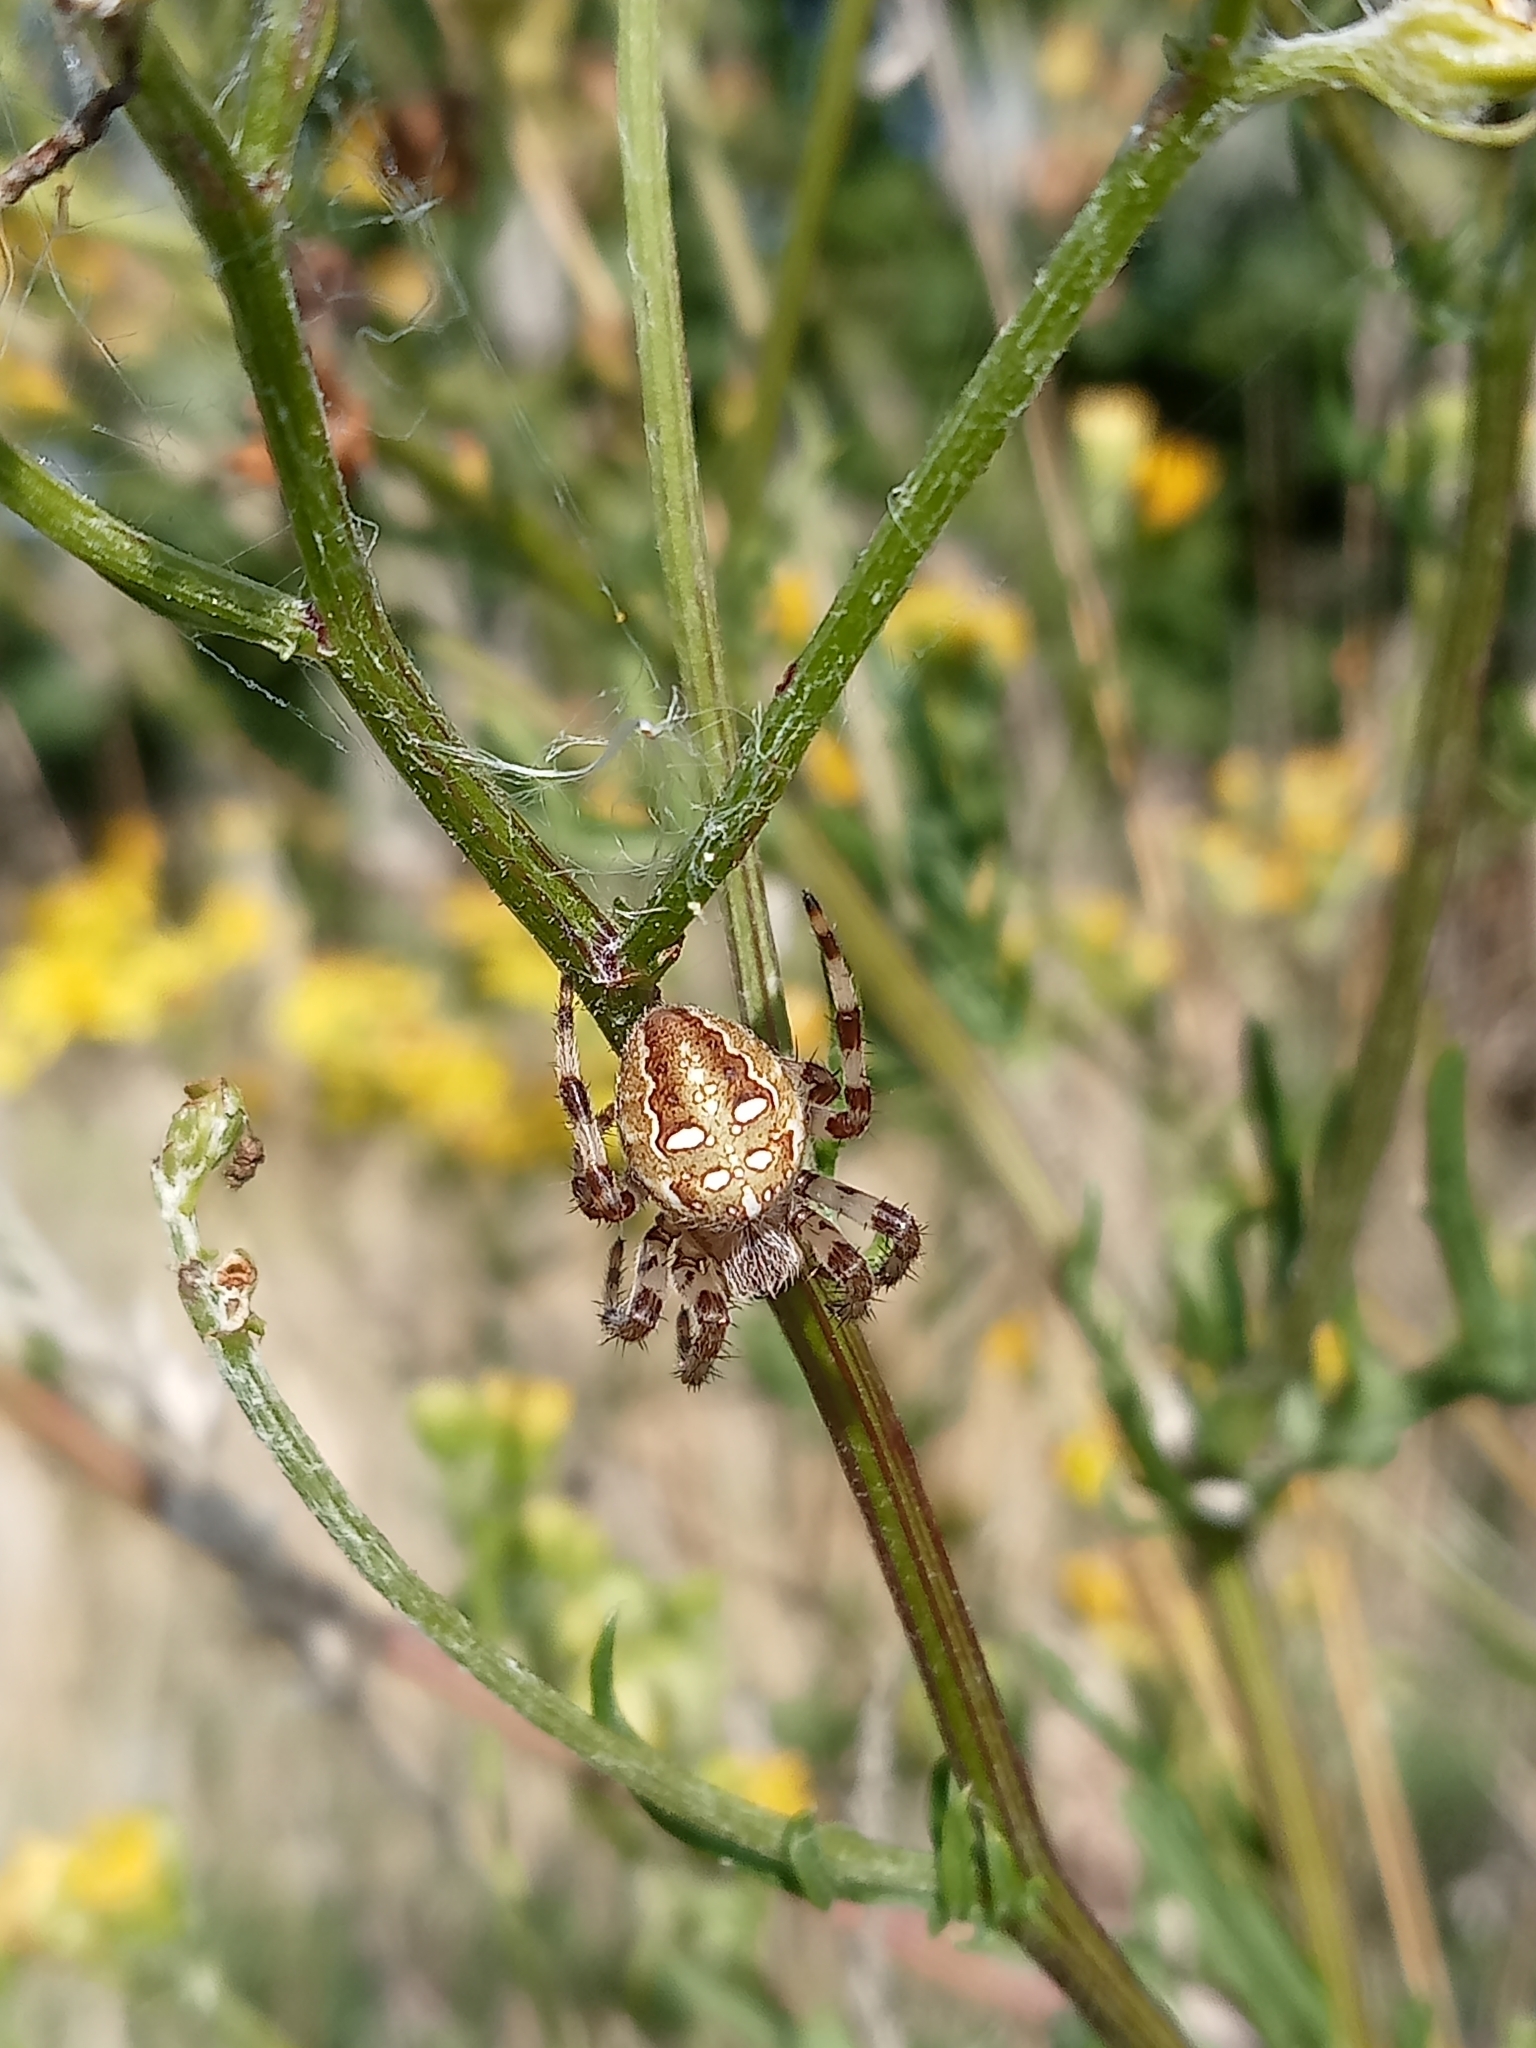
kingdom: Animalia
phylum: Arthropoda
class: Arachnida
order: Araneae
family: Araneidae
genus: Araneus
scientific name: Araneus quadratus
